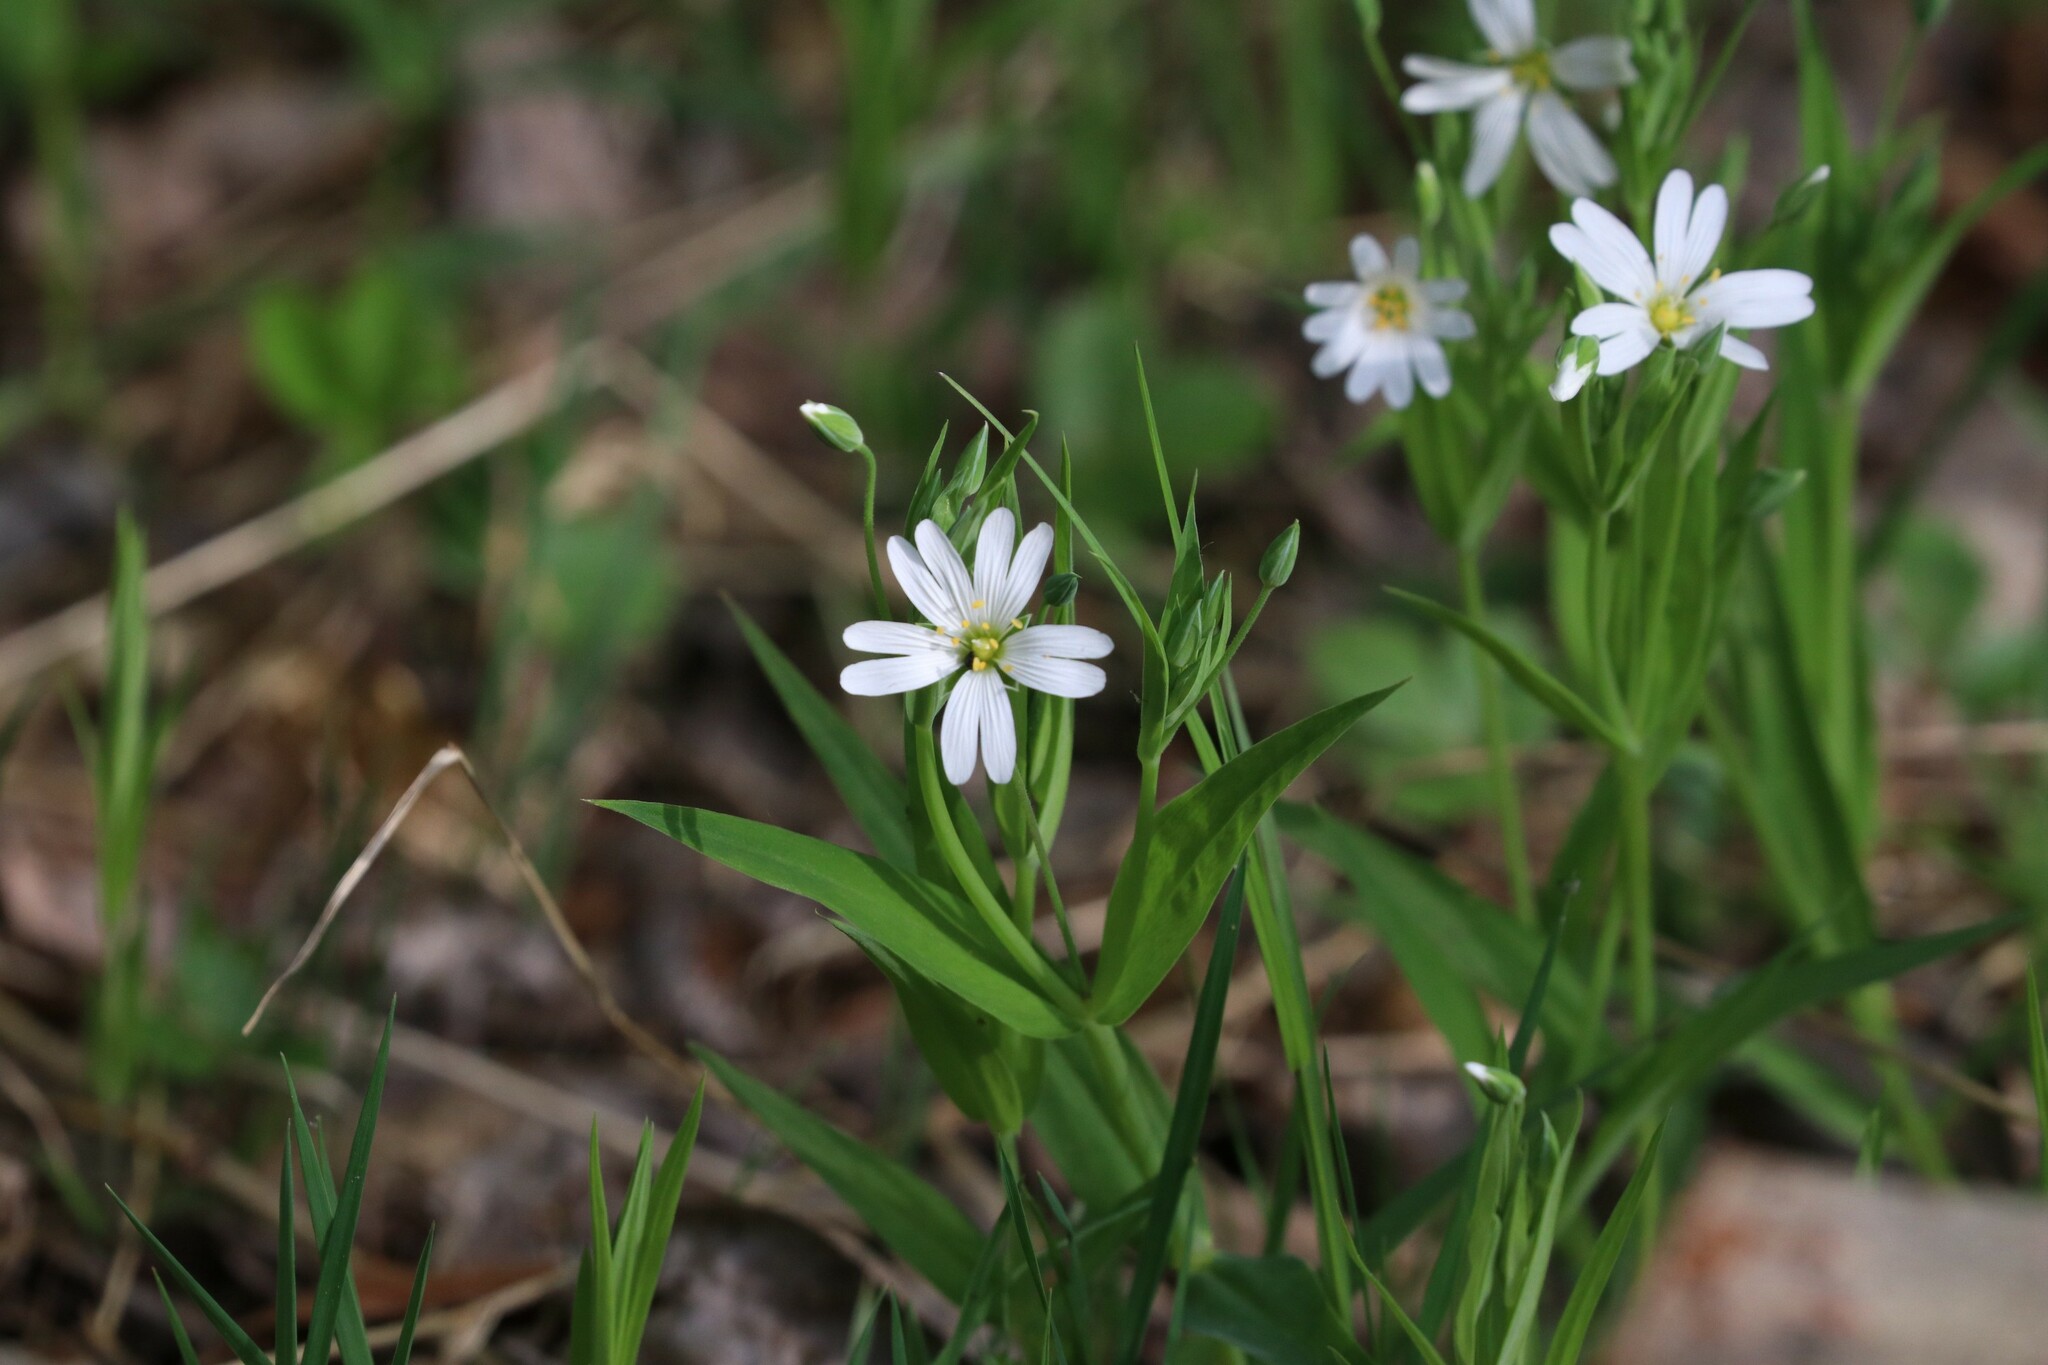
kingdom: Plantae
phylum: Tracheophyta
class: Magnoliopsida
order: Caryophyllales
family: Caryophyllaceae
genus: Rabelera
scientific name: Rabelera holostea
